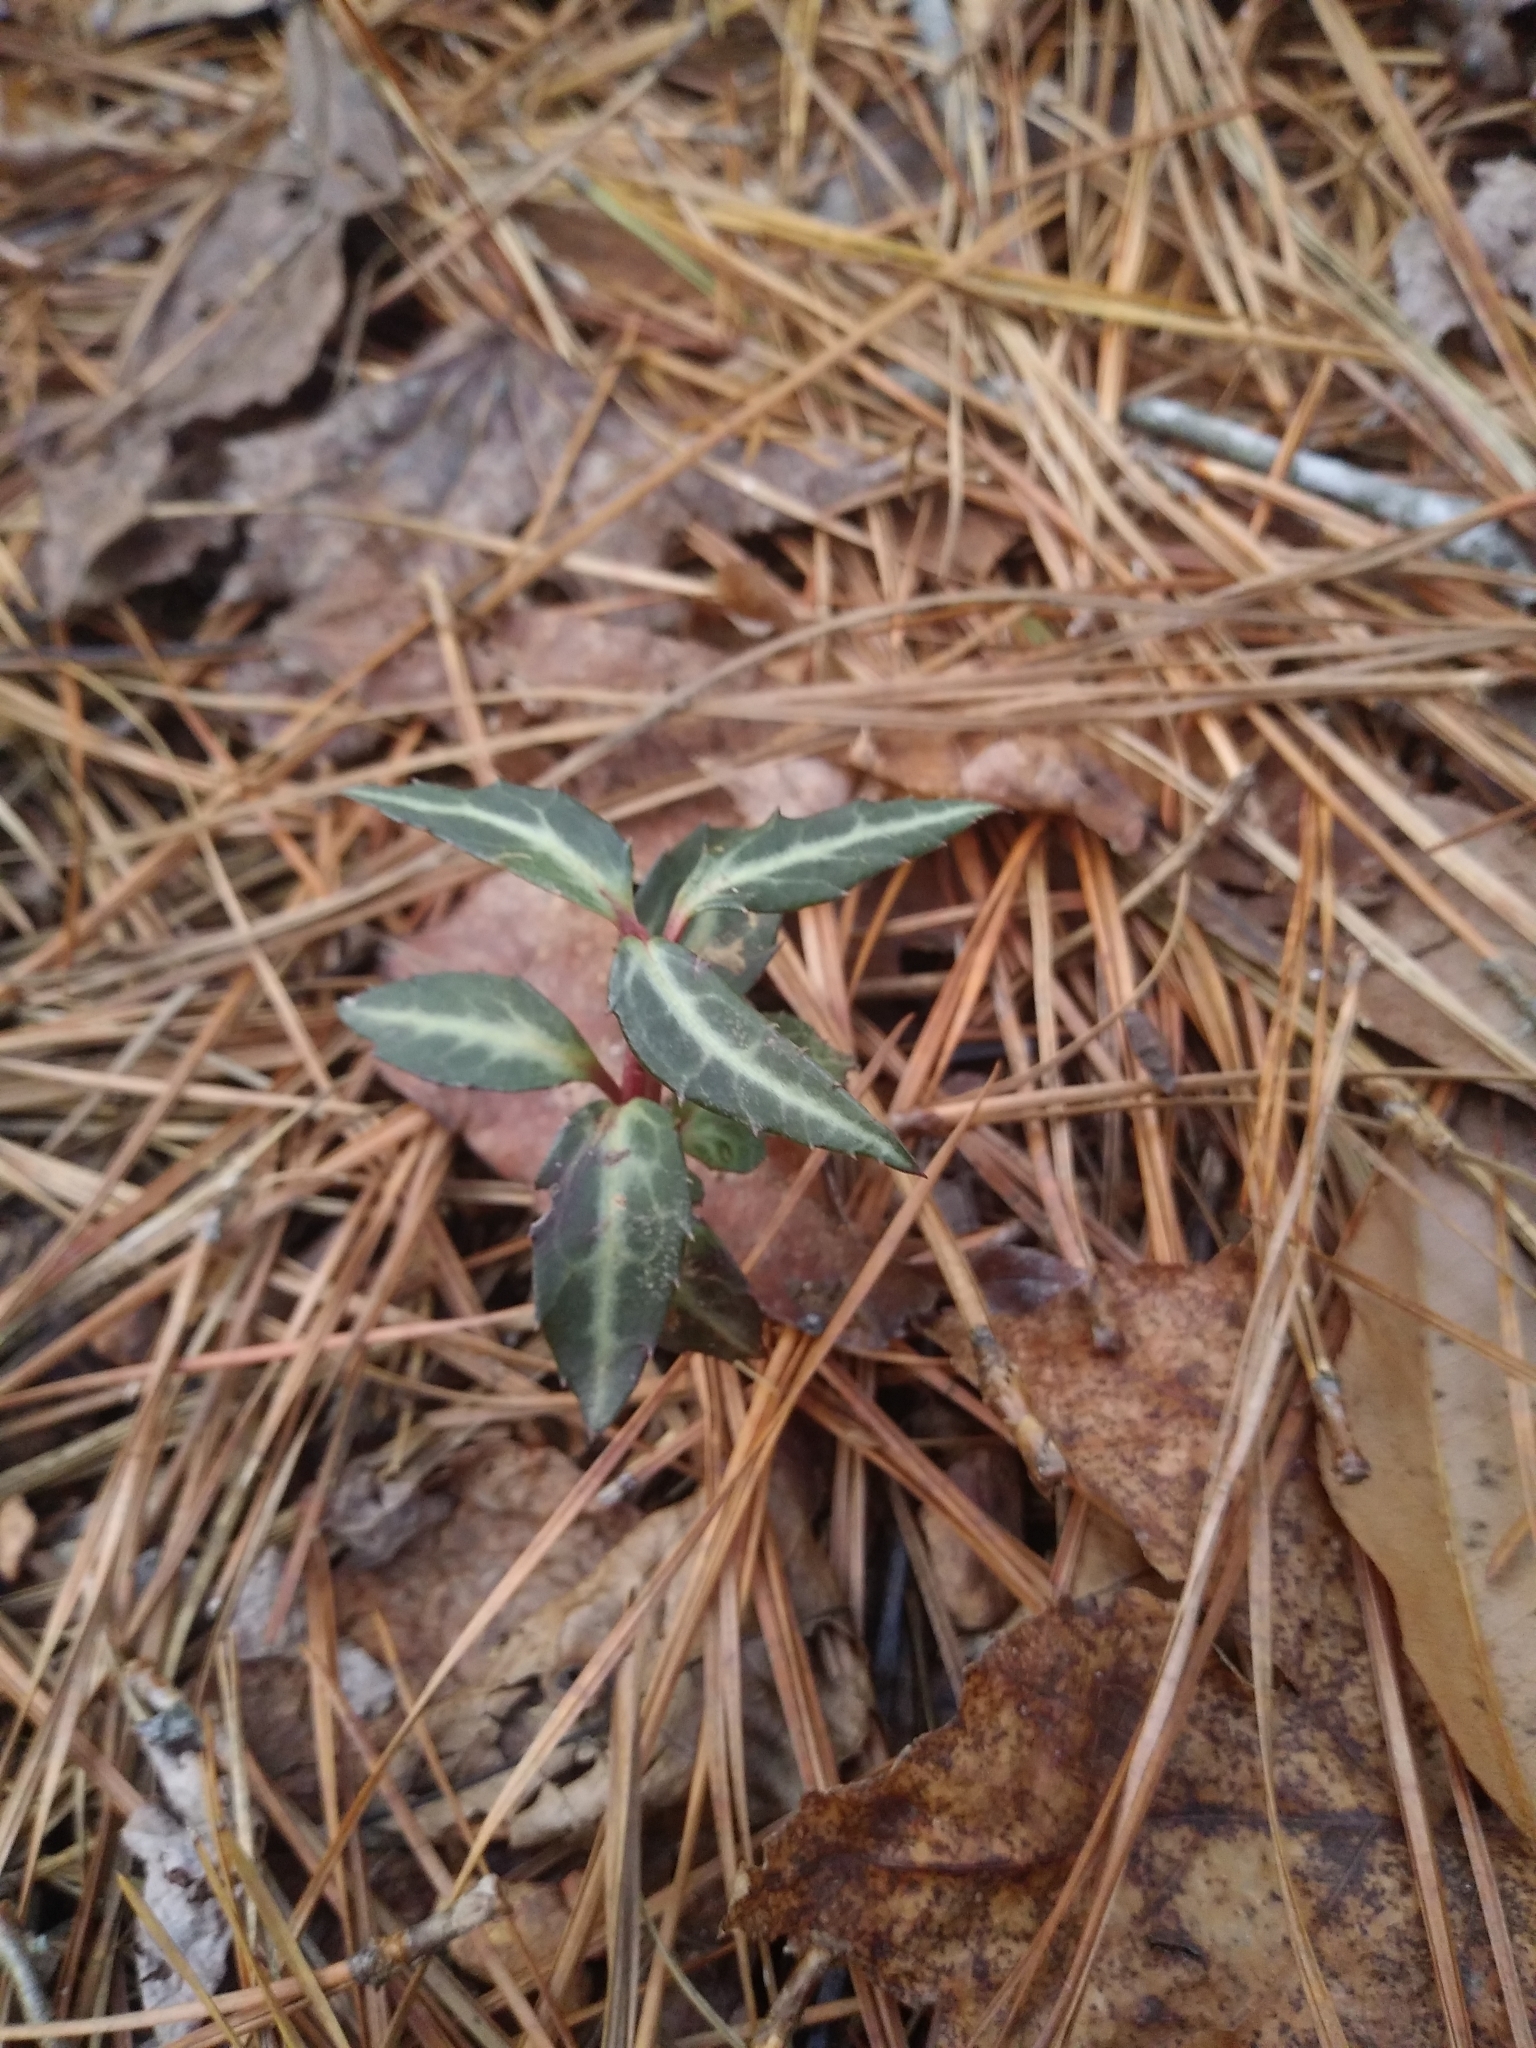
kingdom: Plantae
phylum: Tracheophyta
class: Magnoliopsida
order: Ericales
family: Ericaceae
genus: Chimaphila
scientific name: Chimaphila maculata
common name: Spotted pipsissewa
